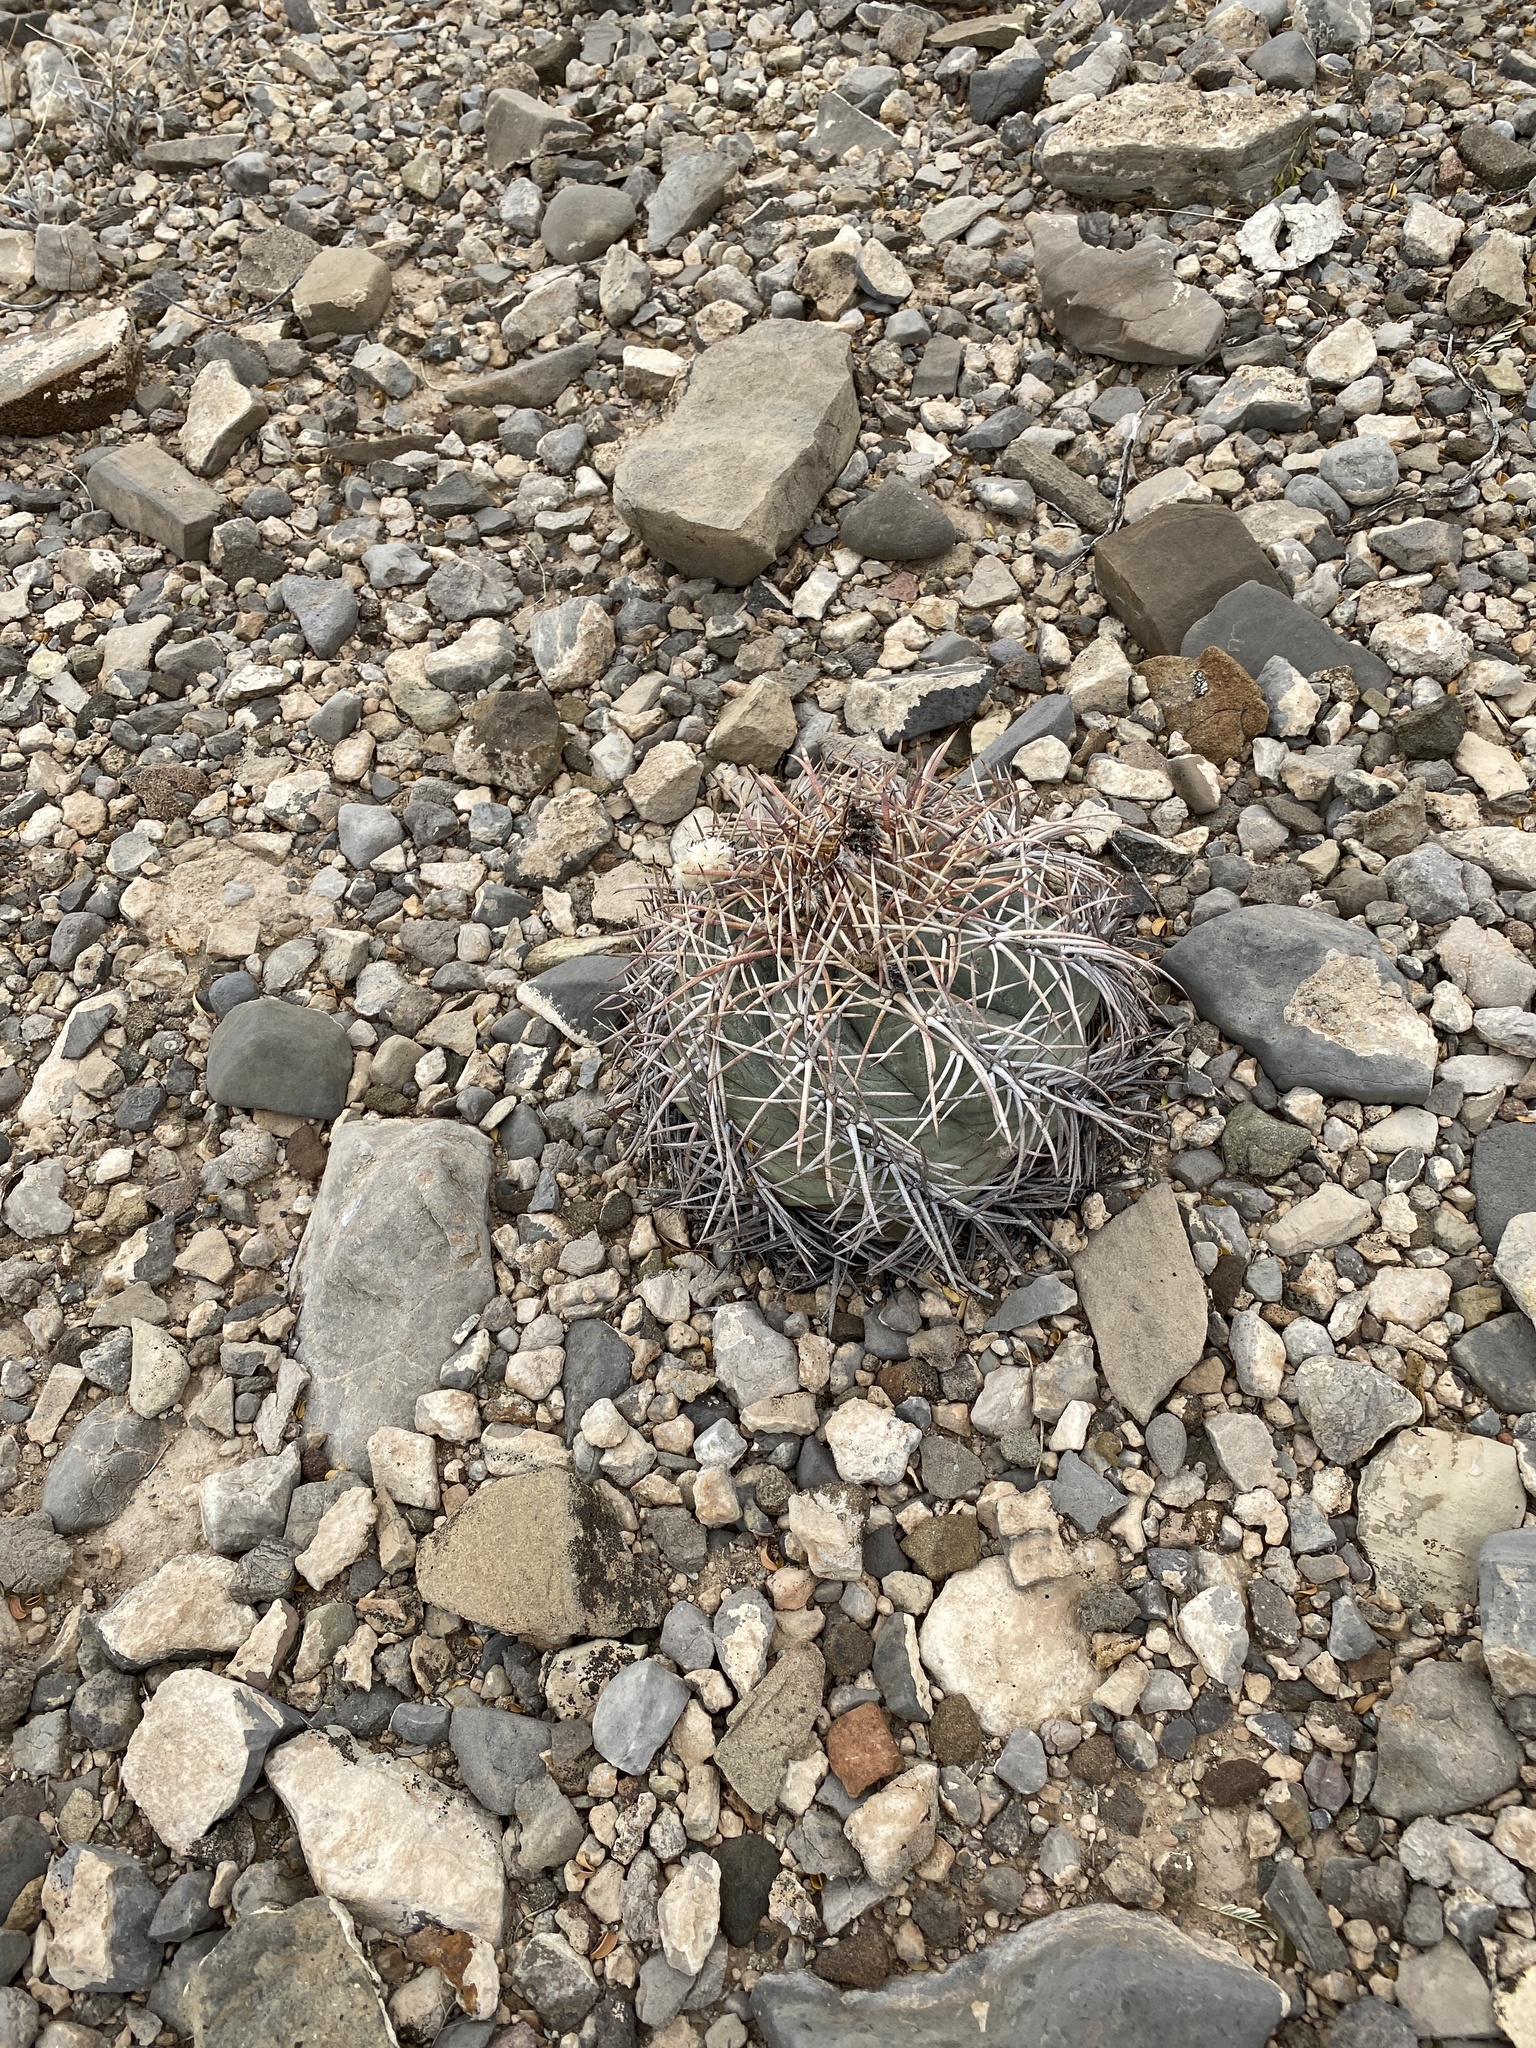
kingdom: Plantae
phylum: Tracheophyta
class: Magnoliopsida
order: Caryophyllales
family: Cactaceae
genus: Echinocactus
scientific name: Echinocactus horizonthalonius
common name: Devilshead
